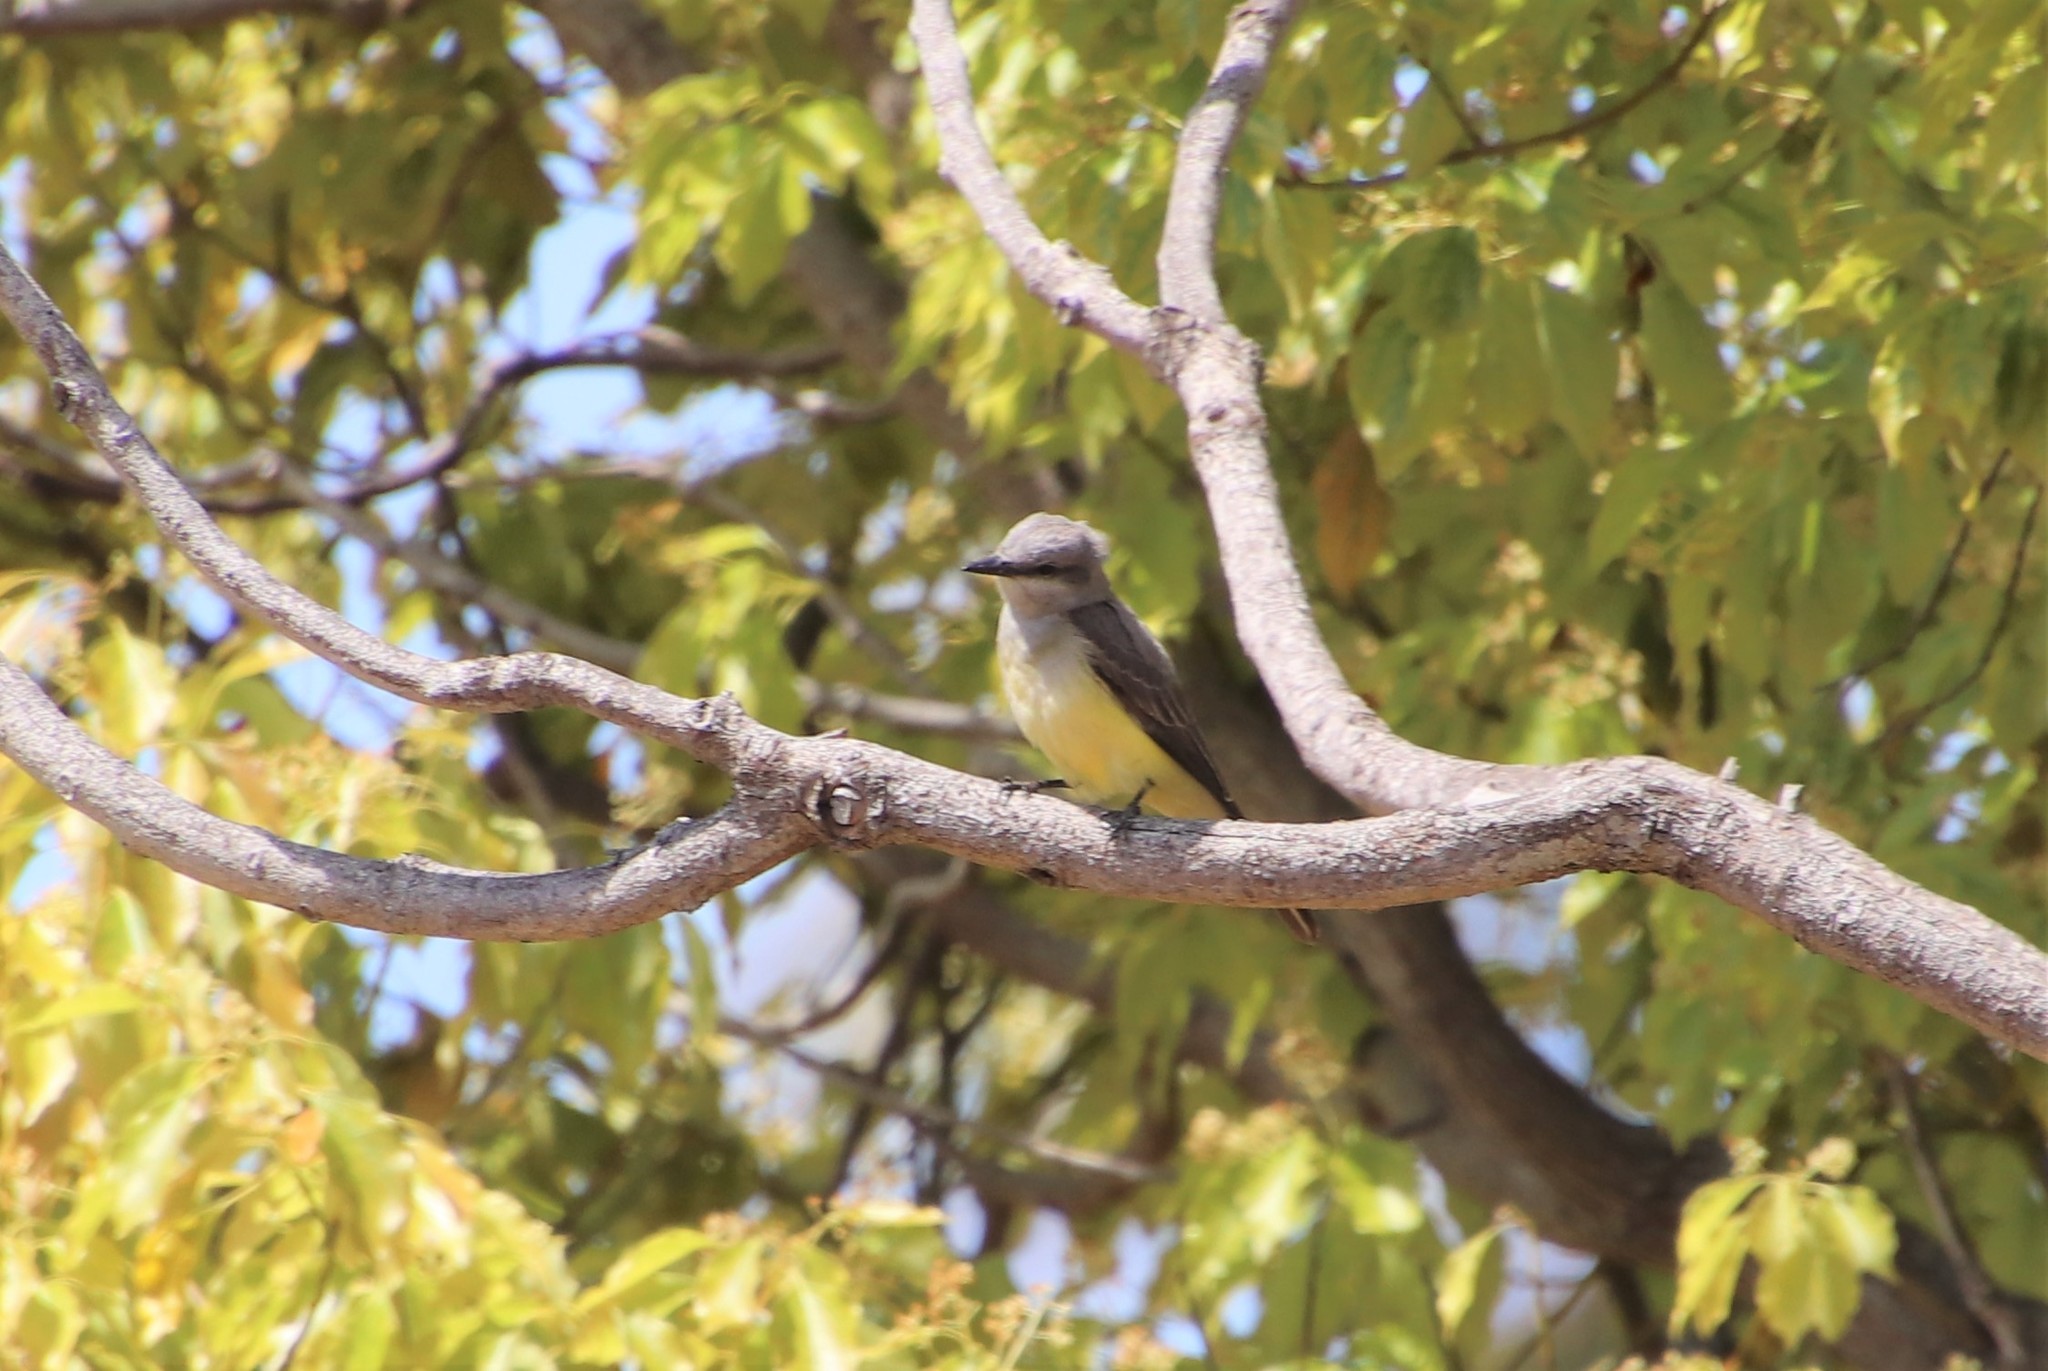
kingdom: Animalia
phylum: Chordata
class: Aves
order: Passeriformes
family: Tyrannidae
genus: Tyrannus
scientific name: Tyrannus verticalis
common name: Western kingbird
